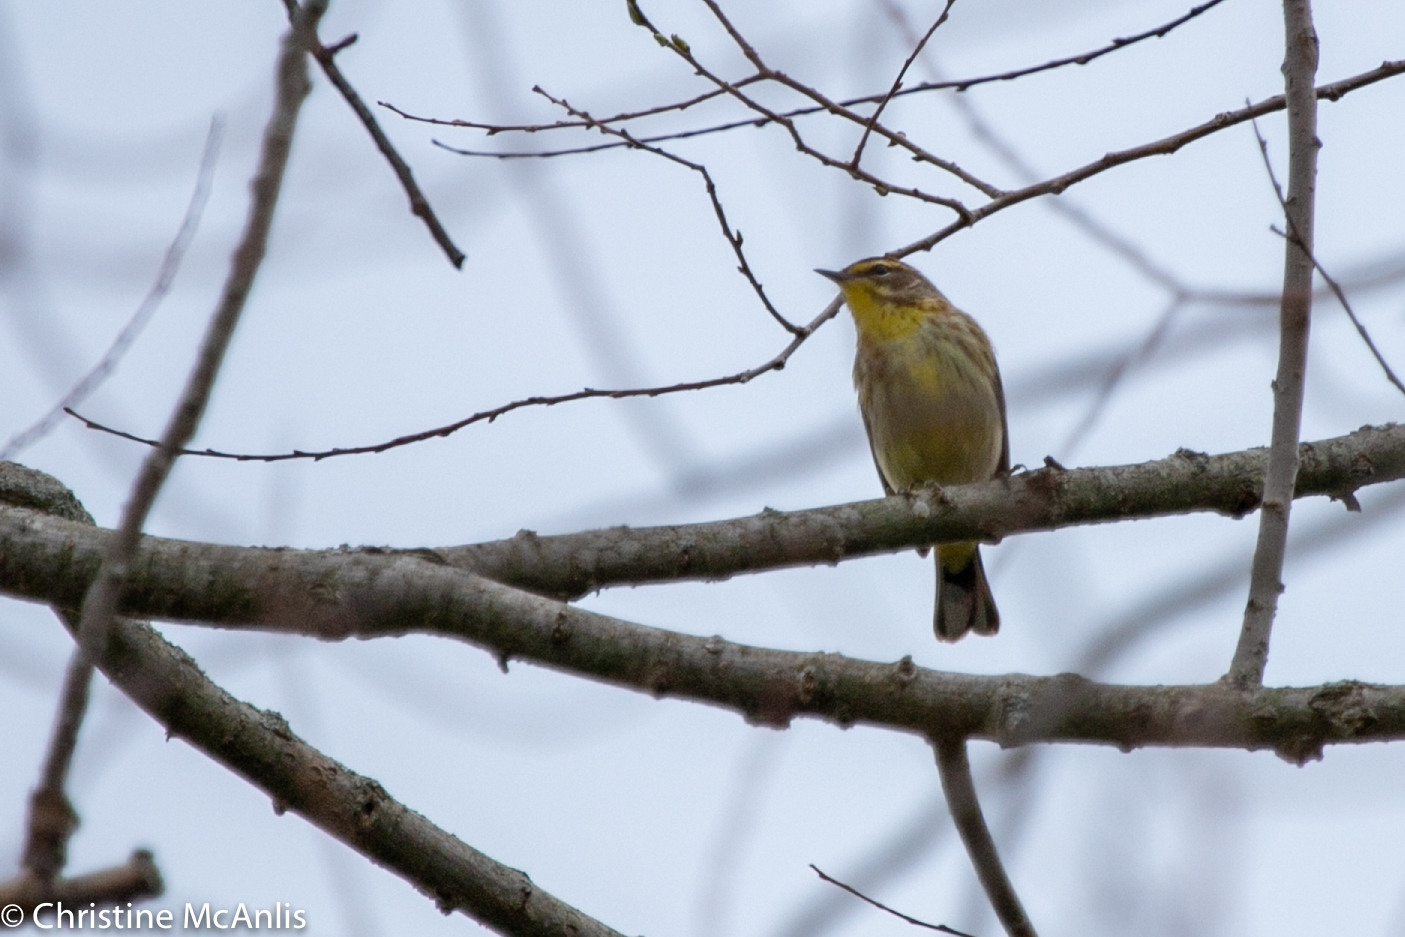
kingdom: Animalia
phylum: Chordata
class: Aves
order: Passeriformes
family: Parulidae
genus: Setophaga
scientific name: Setophaga palmarum
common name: Palm warbler
